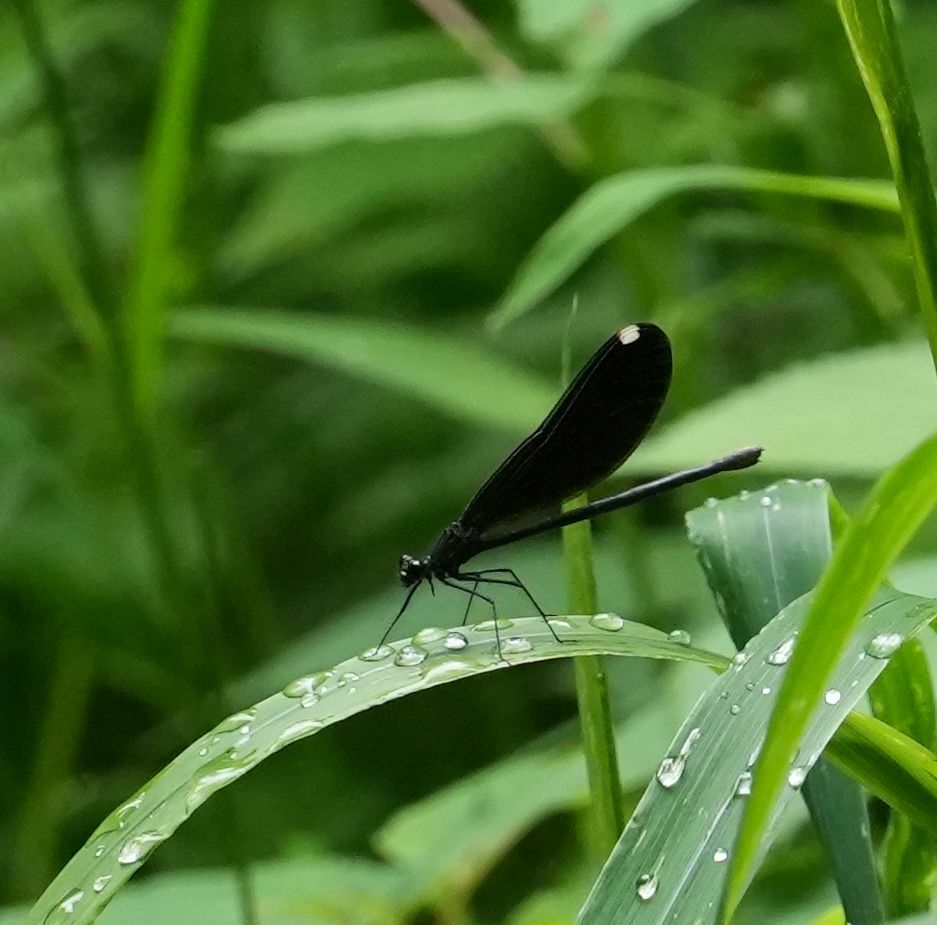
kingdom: Animalia
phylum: Arthropoda
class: Insecta
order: Odonata
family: Calopterygidae
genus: Calopteryx
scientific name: Calopteryx maculata
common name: Ebony jewelwing
